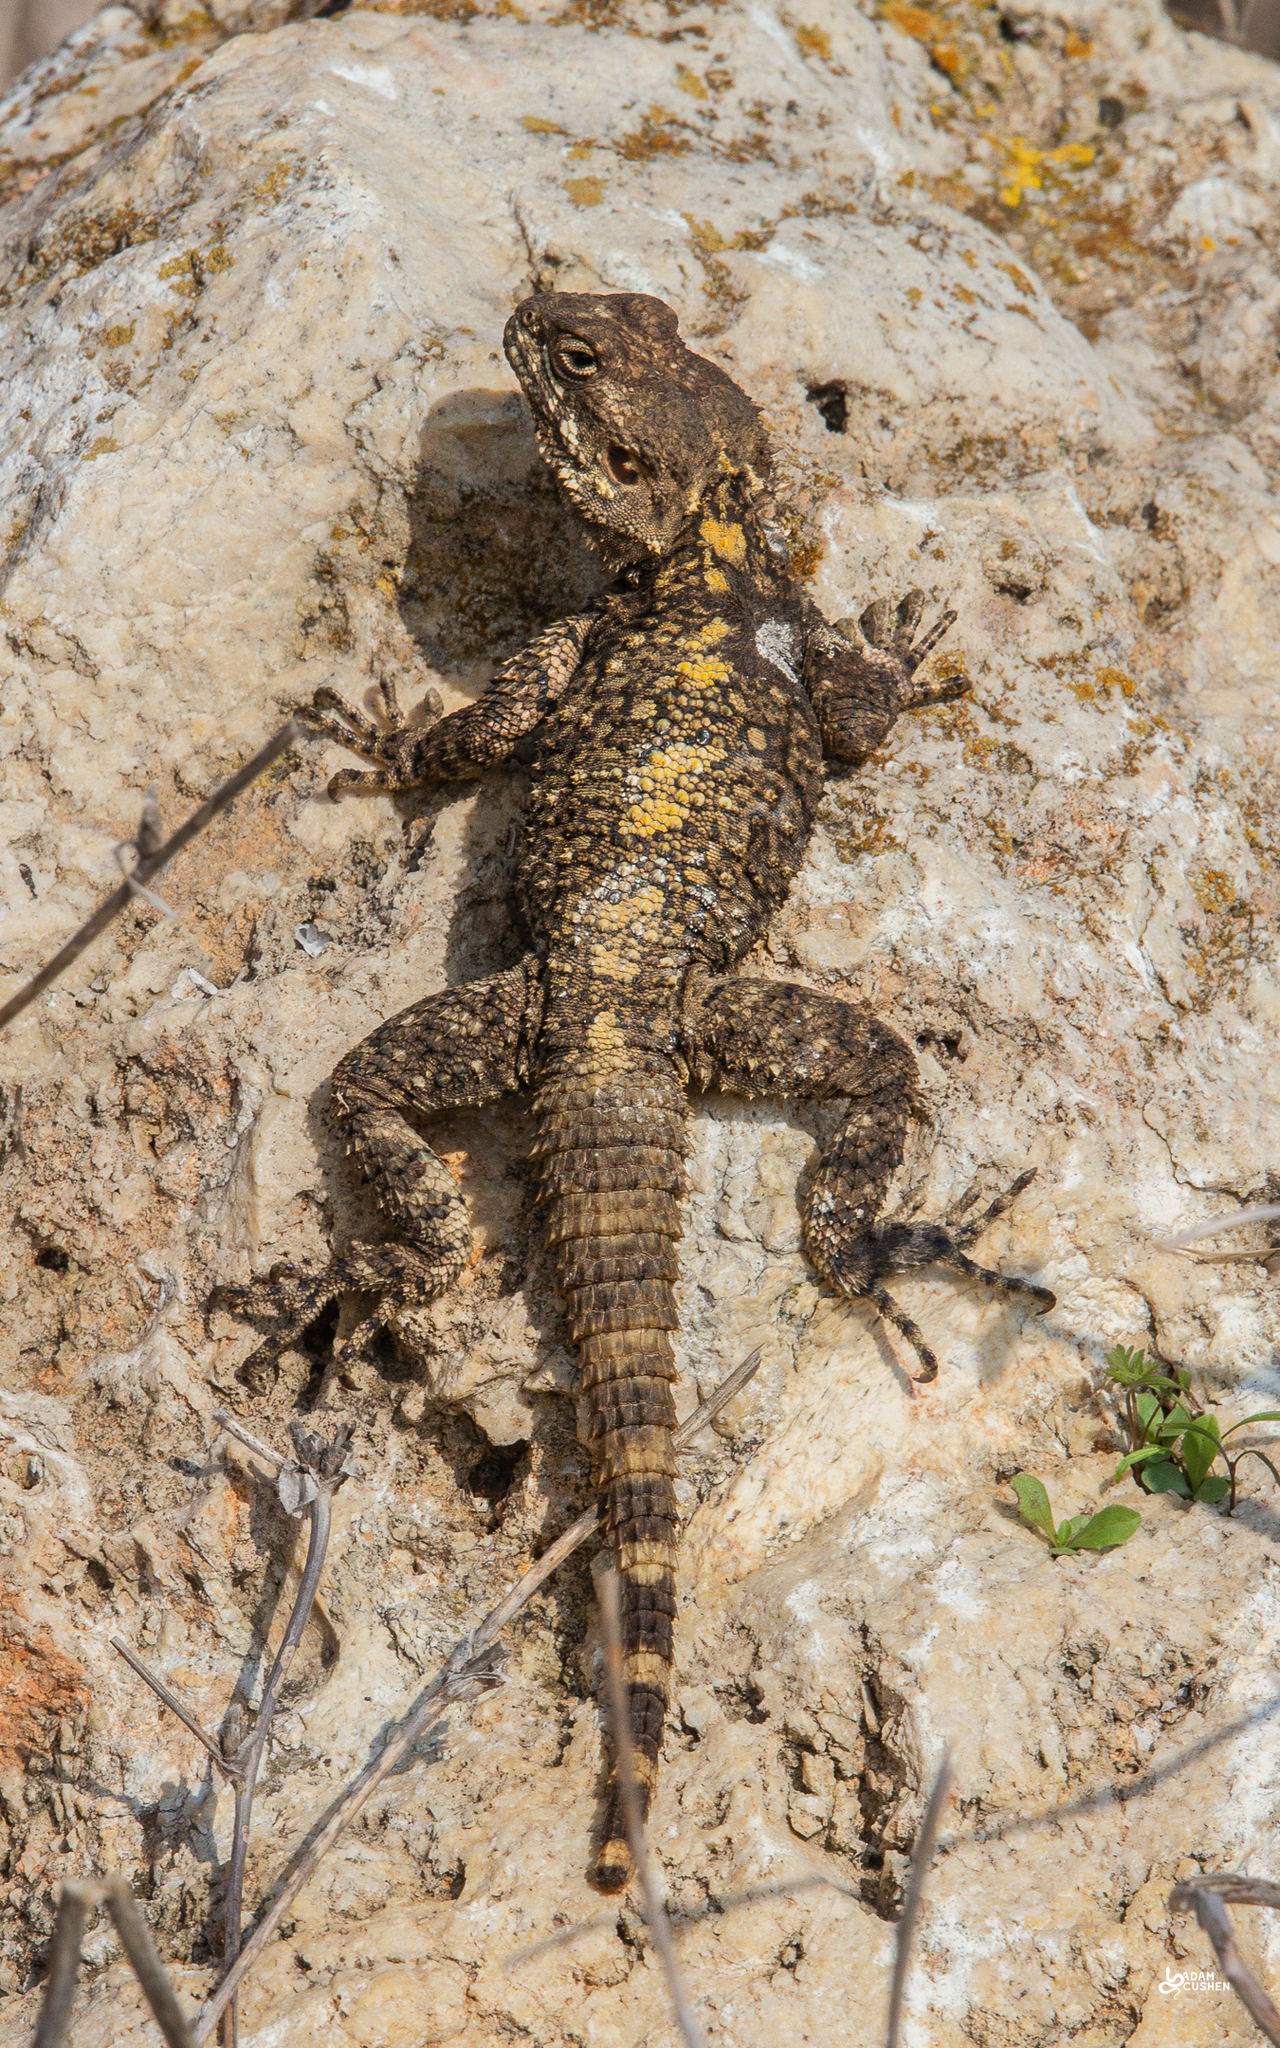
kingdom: Animalia
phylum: Chordata
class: Squamata
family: Agamidae
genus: Laudakia
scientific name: Laudakia vulgaris
